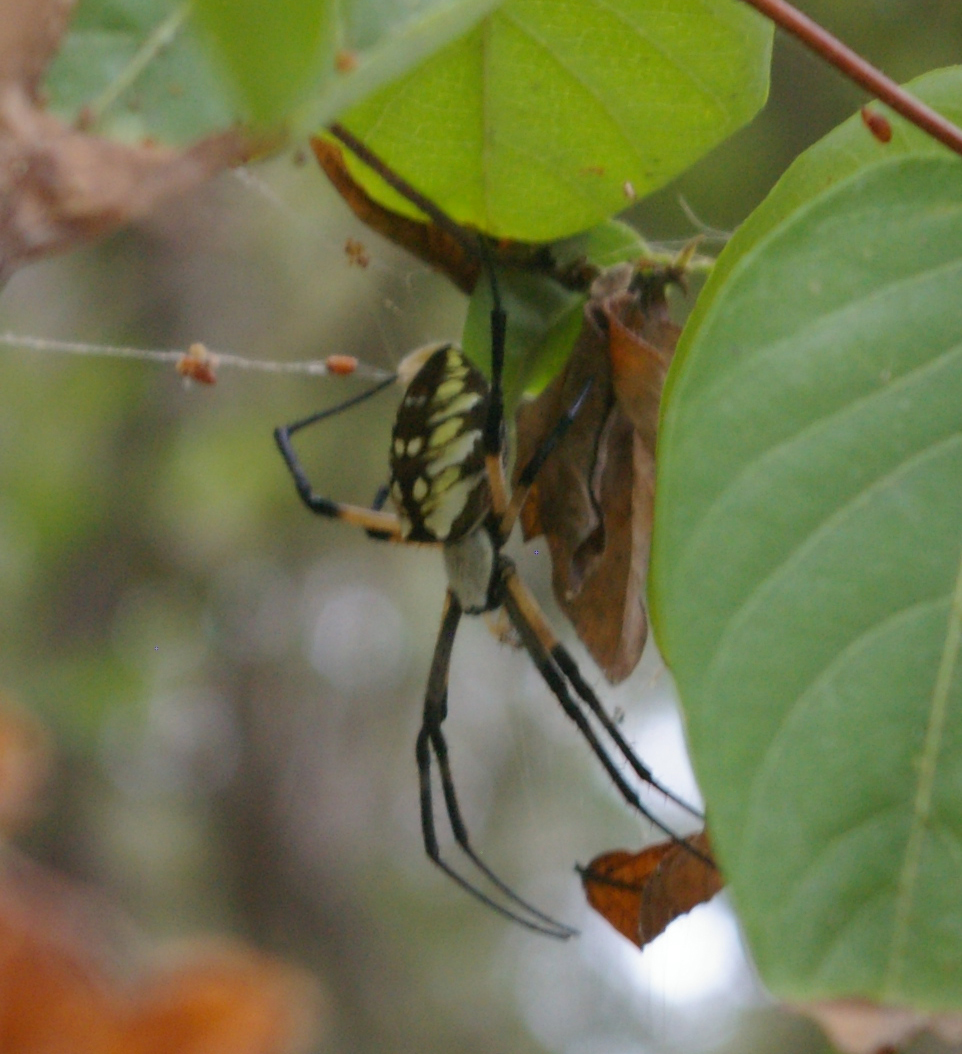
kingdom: Animalia
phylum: Arthropoda
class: Arachnida
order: Araneae
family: Araneidae
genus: Argiope
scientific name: Argiope aurantia
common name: Orb weavers
